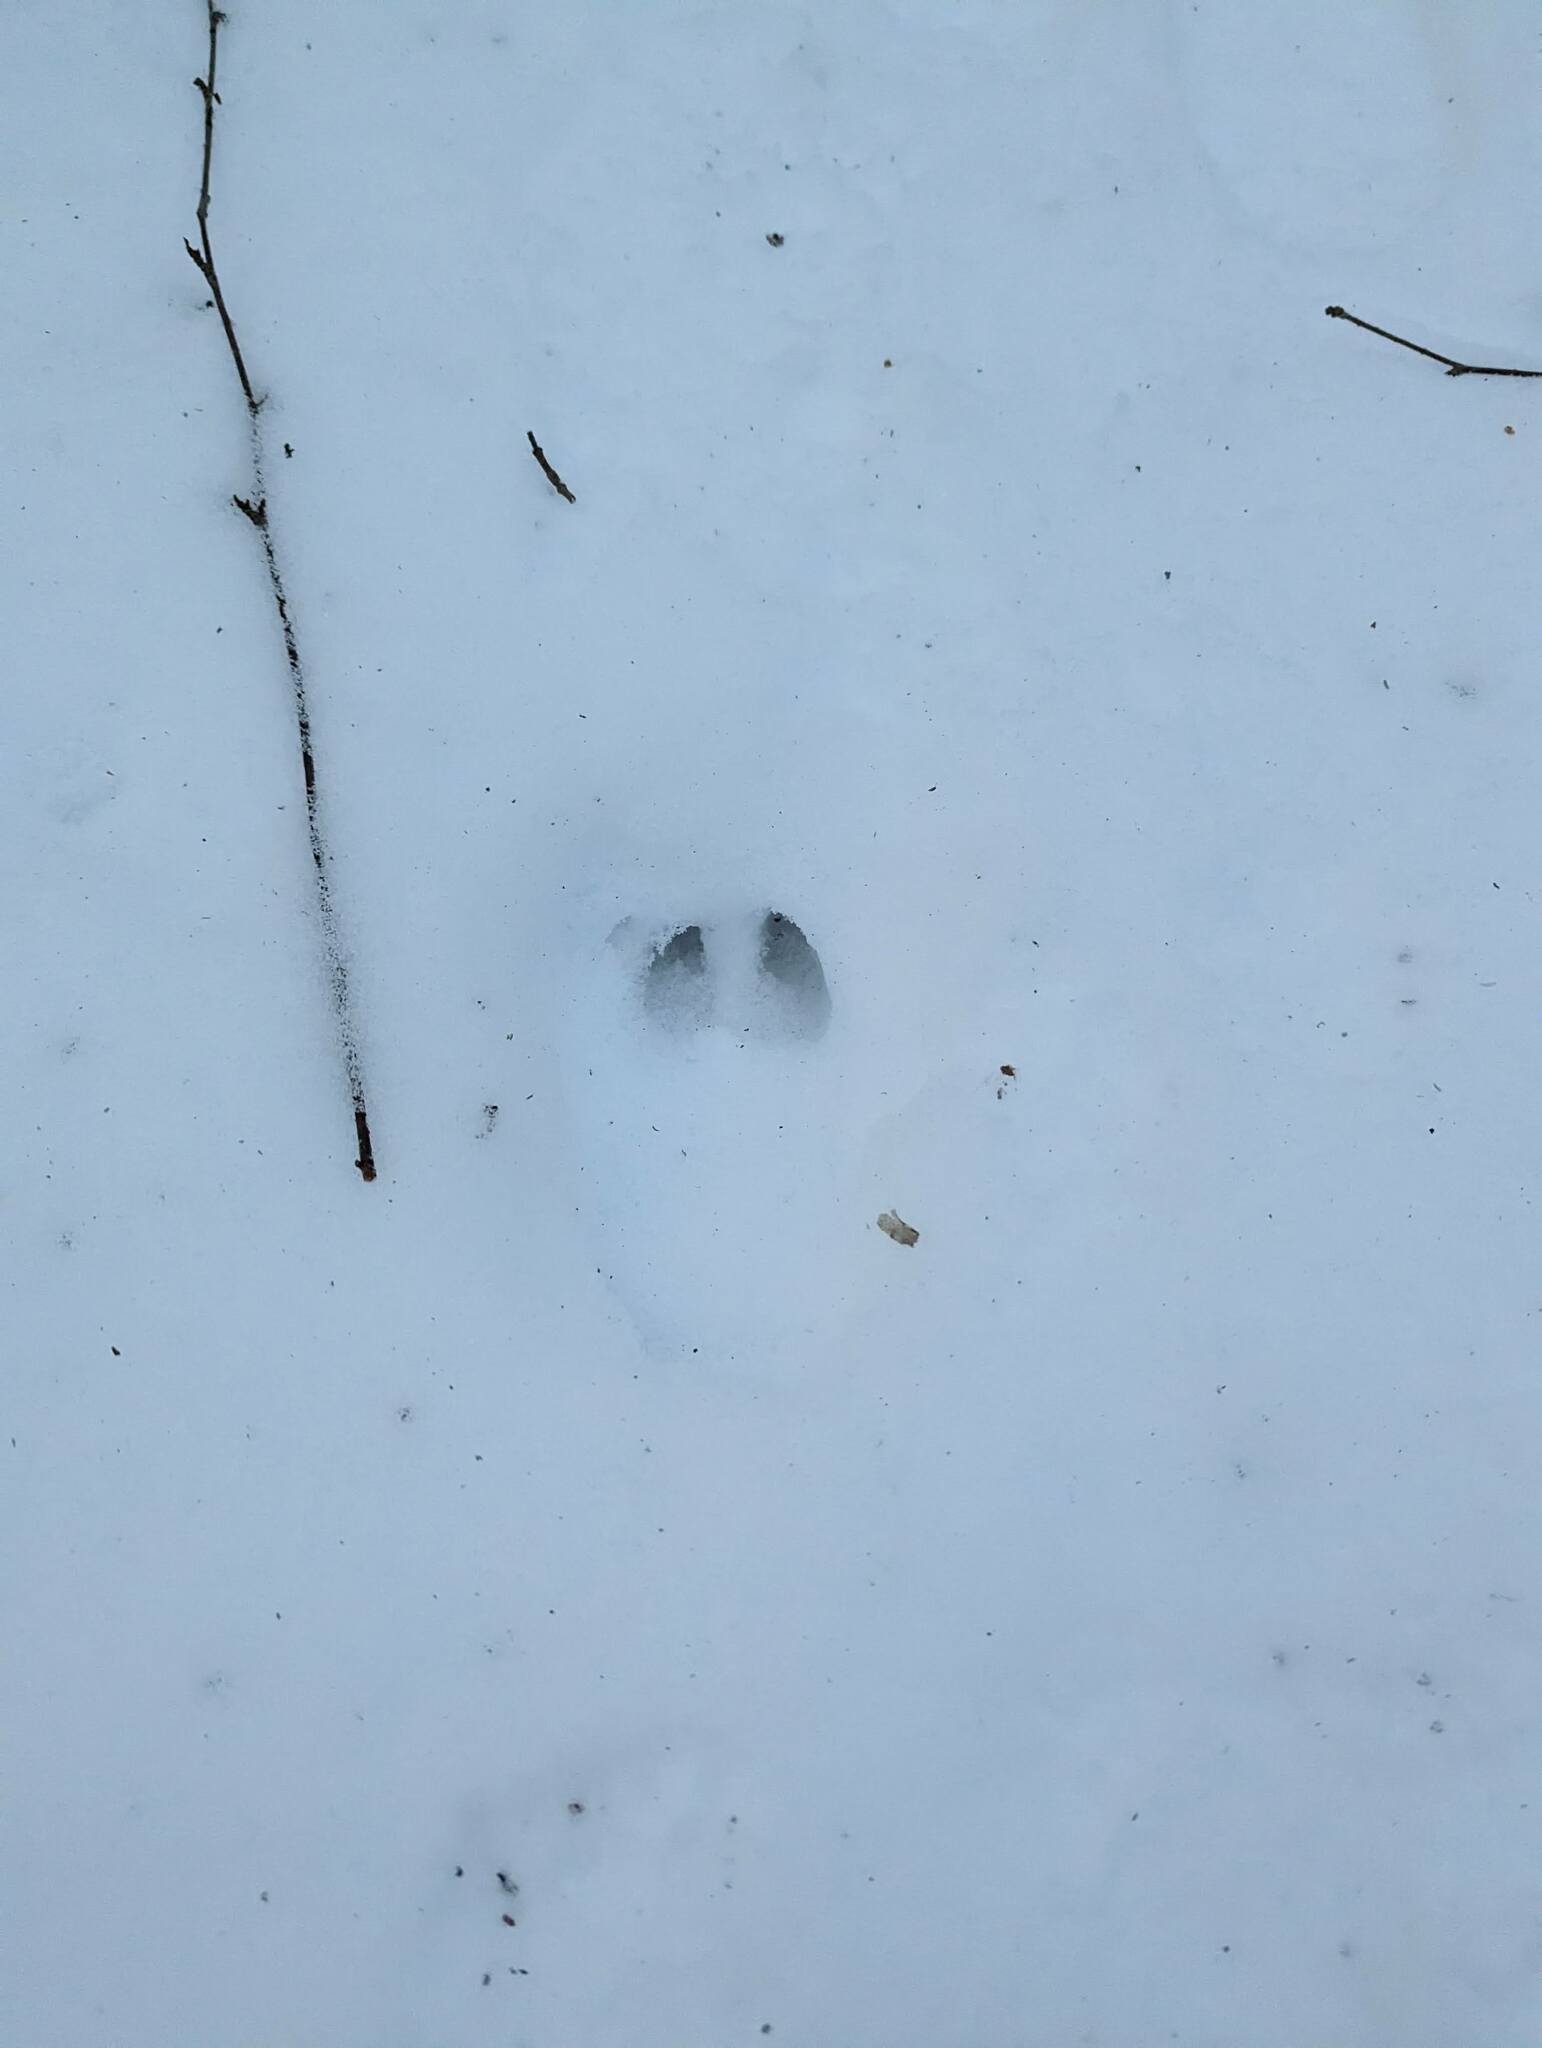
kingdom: Animalia
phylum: Chordata
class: Mammalia
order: Artiodactyla
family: Cervidae
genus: Odocoileus
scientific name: Odocoileus virginianus
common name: White-tailed deer
